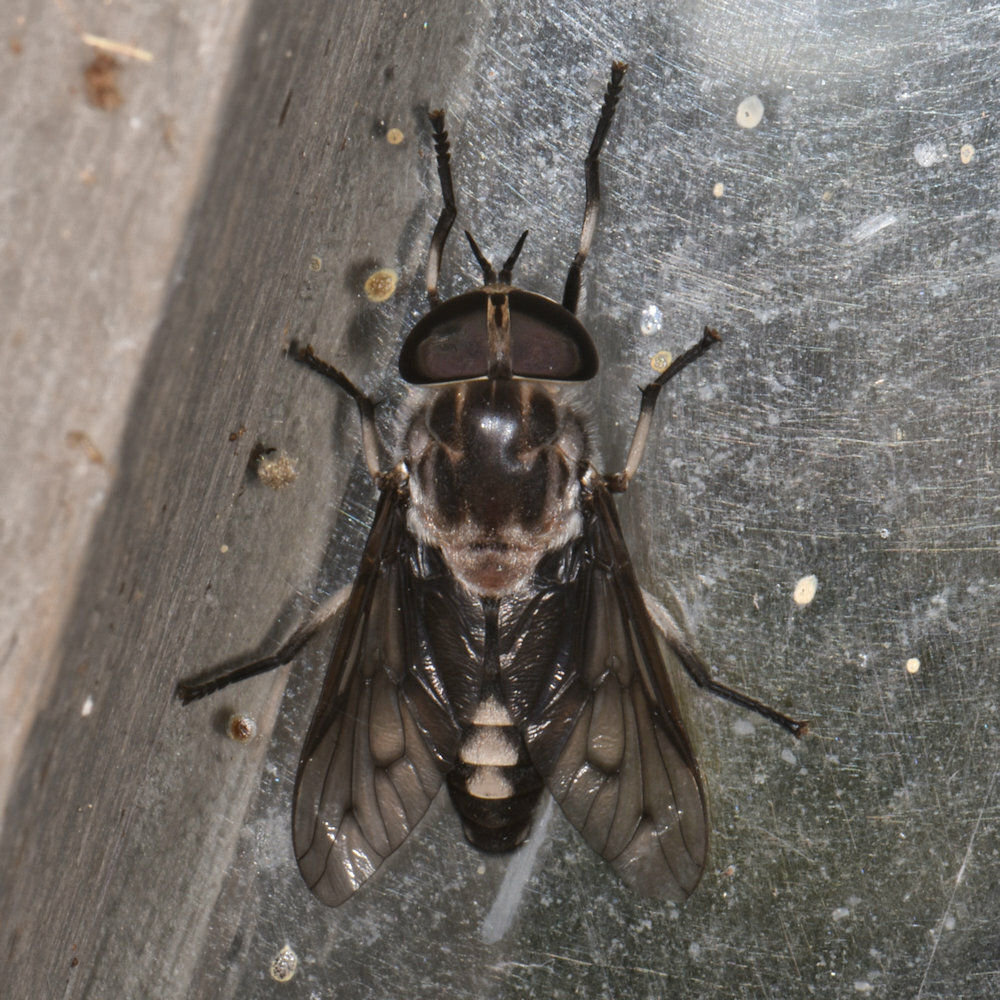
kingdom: Animalia
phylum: Arthropoda
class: Insecta
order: Diptera
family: Tabanidae
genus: Tabanus
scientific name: Tabanus trimaculatus
